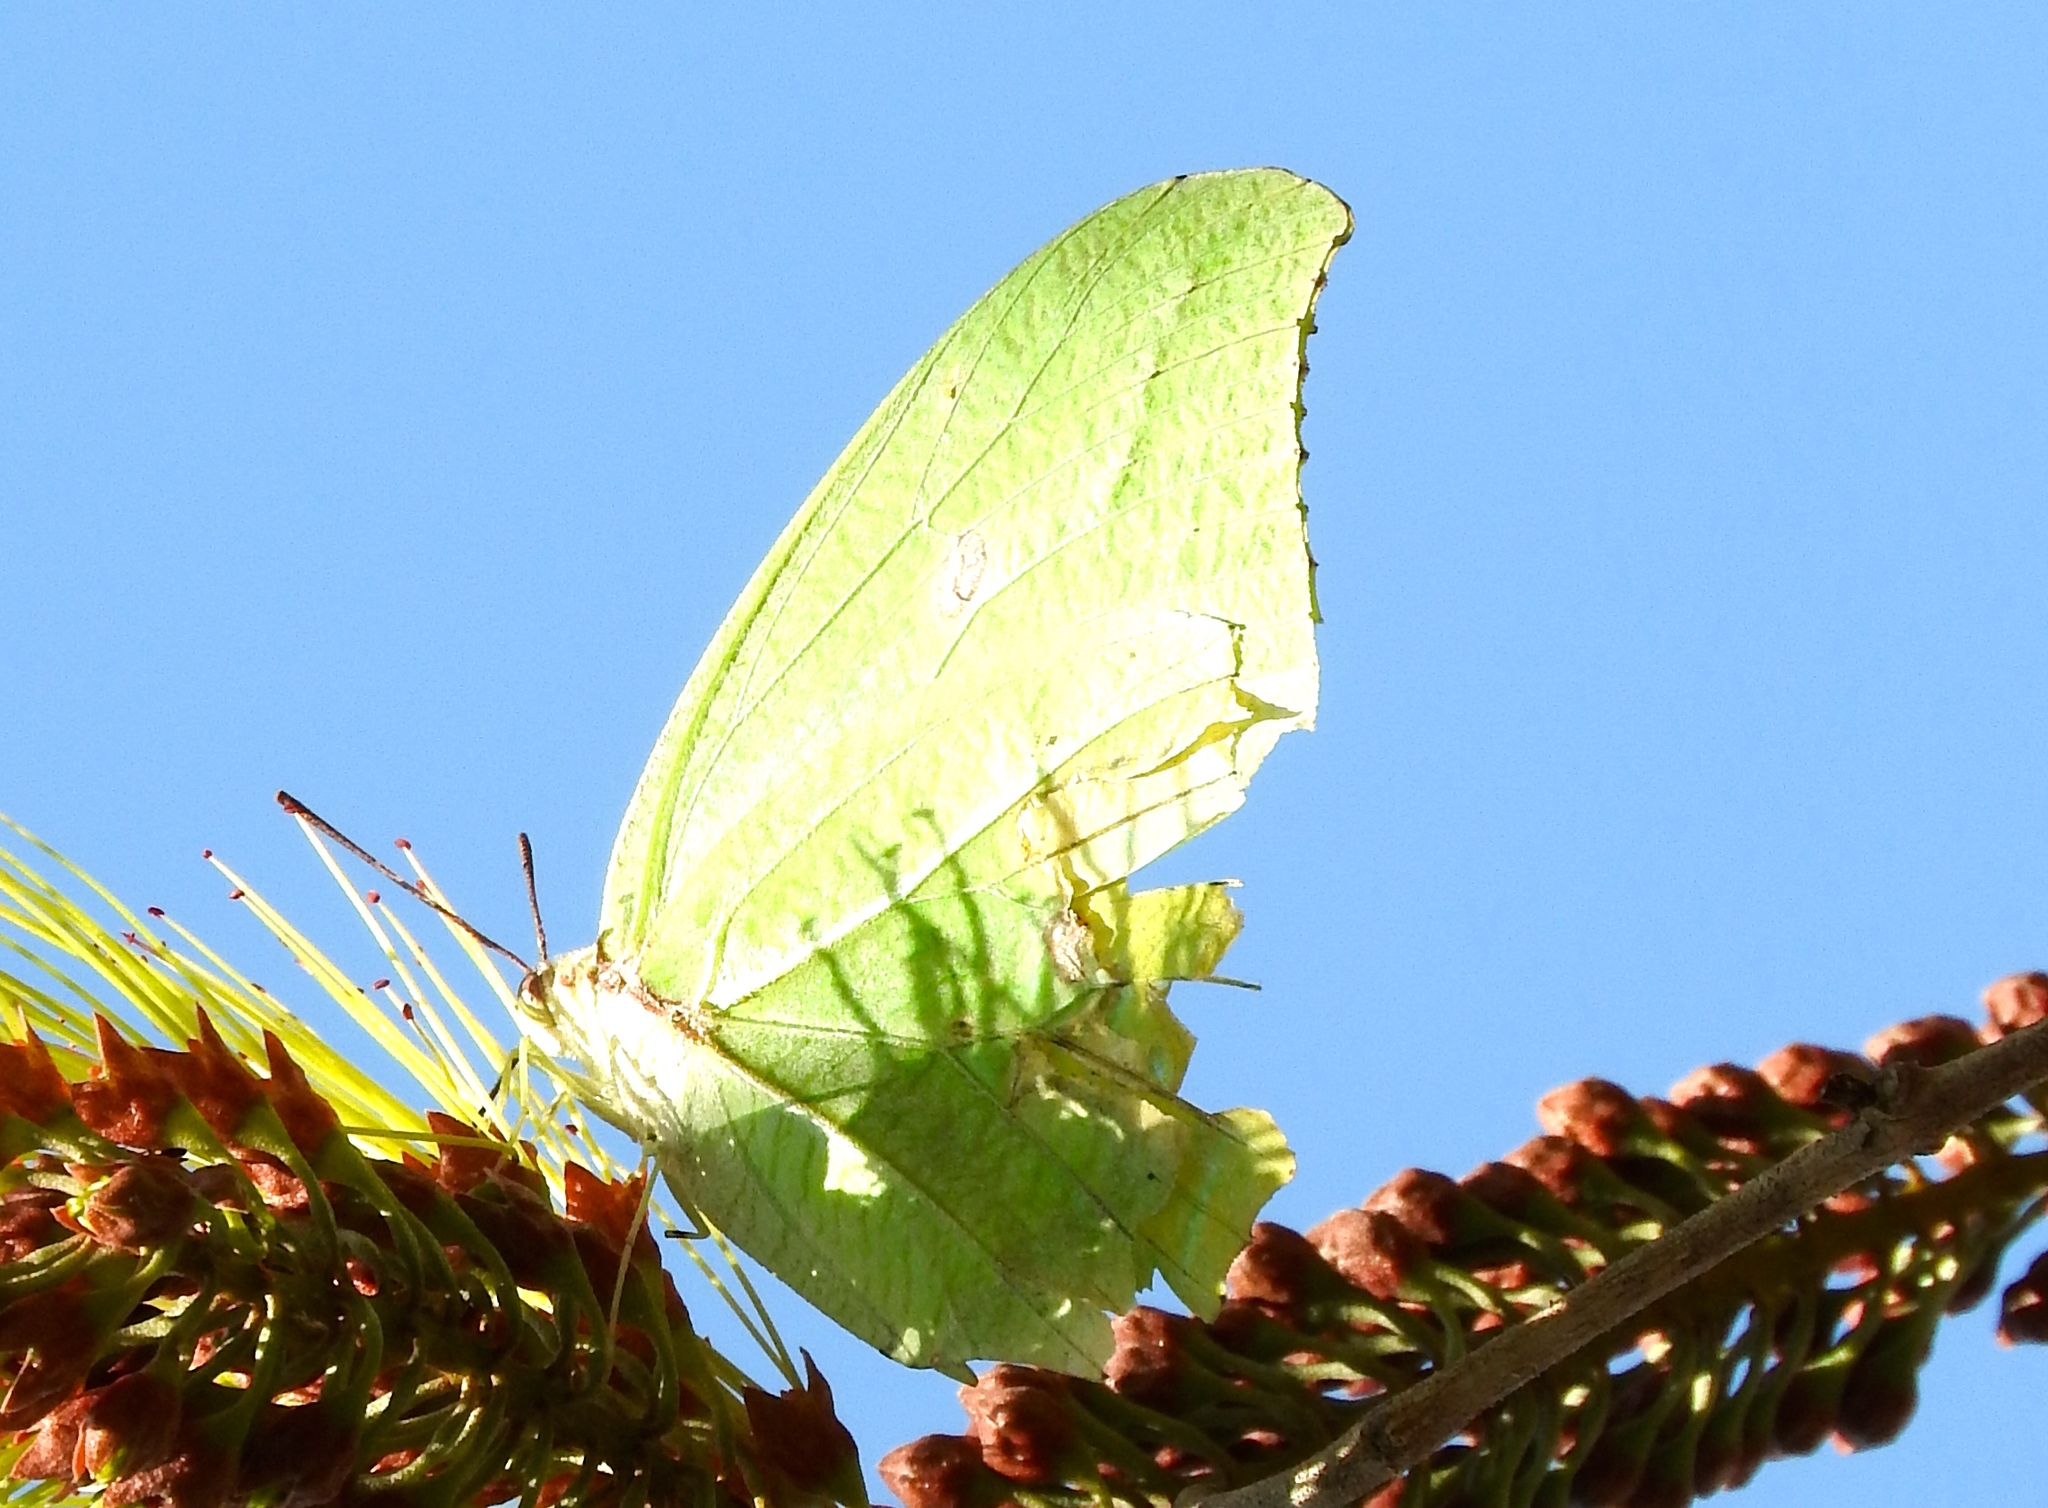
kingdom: Animalia
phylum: Arthropoda
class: Insecta
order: Lepidoptera
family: Pieridae
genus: Anteos
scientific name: Anteos maerula
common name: Angled sulphur
